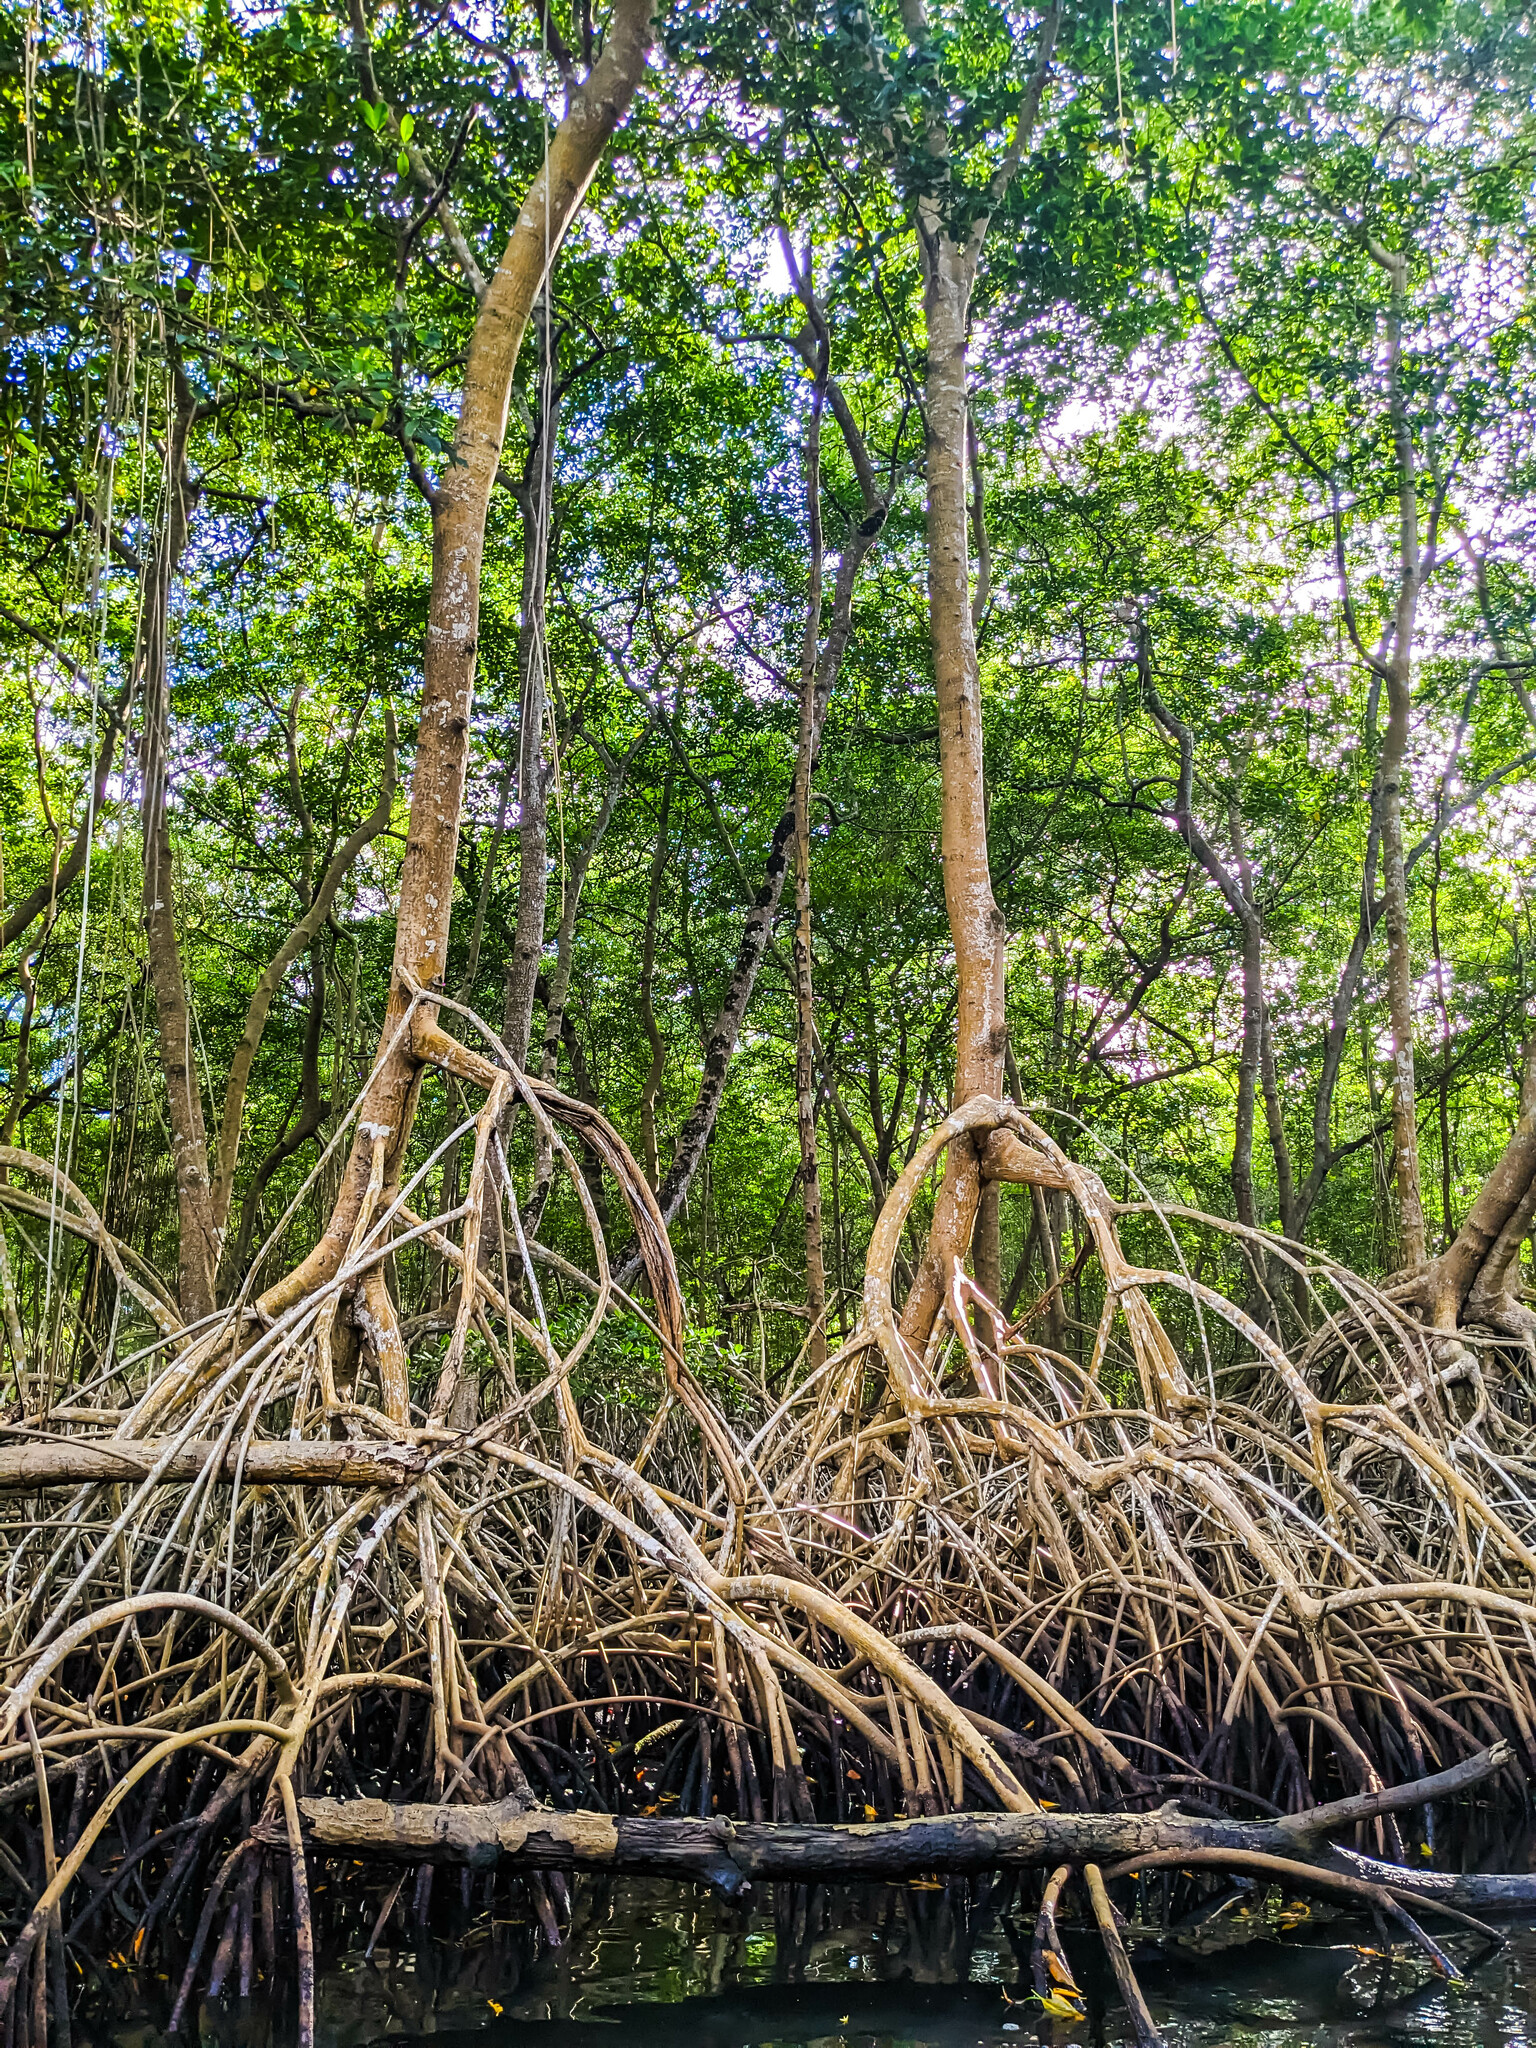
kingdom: Plantae
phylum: Tracheophyta
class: Magnoliopsida
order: Malpighiales
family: Rhizophoraceae
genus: Rhizophora
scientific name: Rhizophora mangle
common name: Red mangrove
